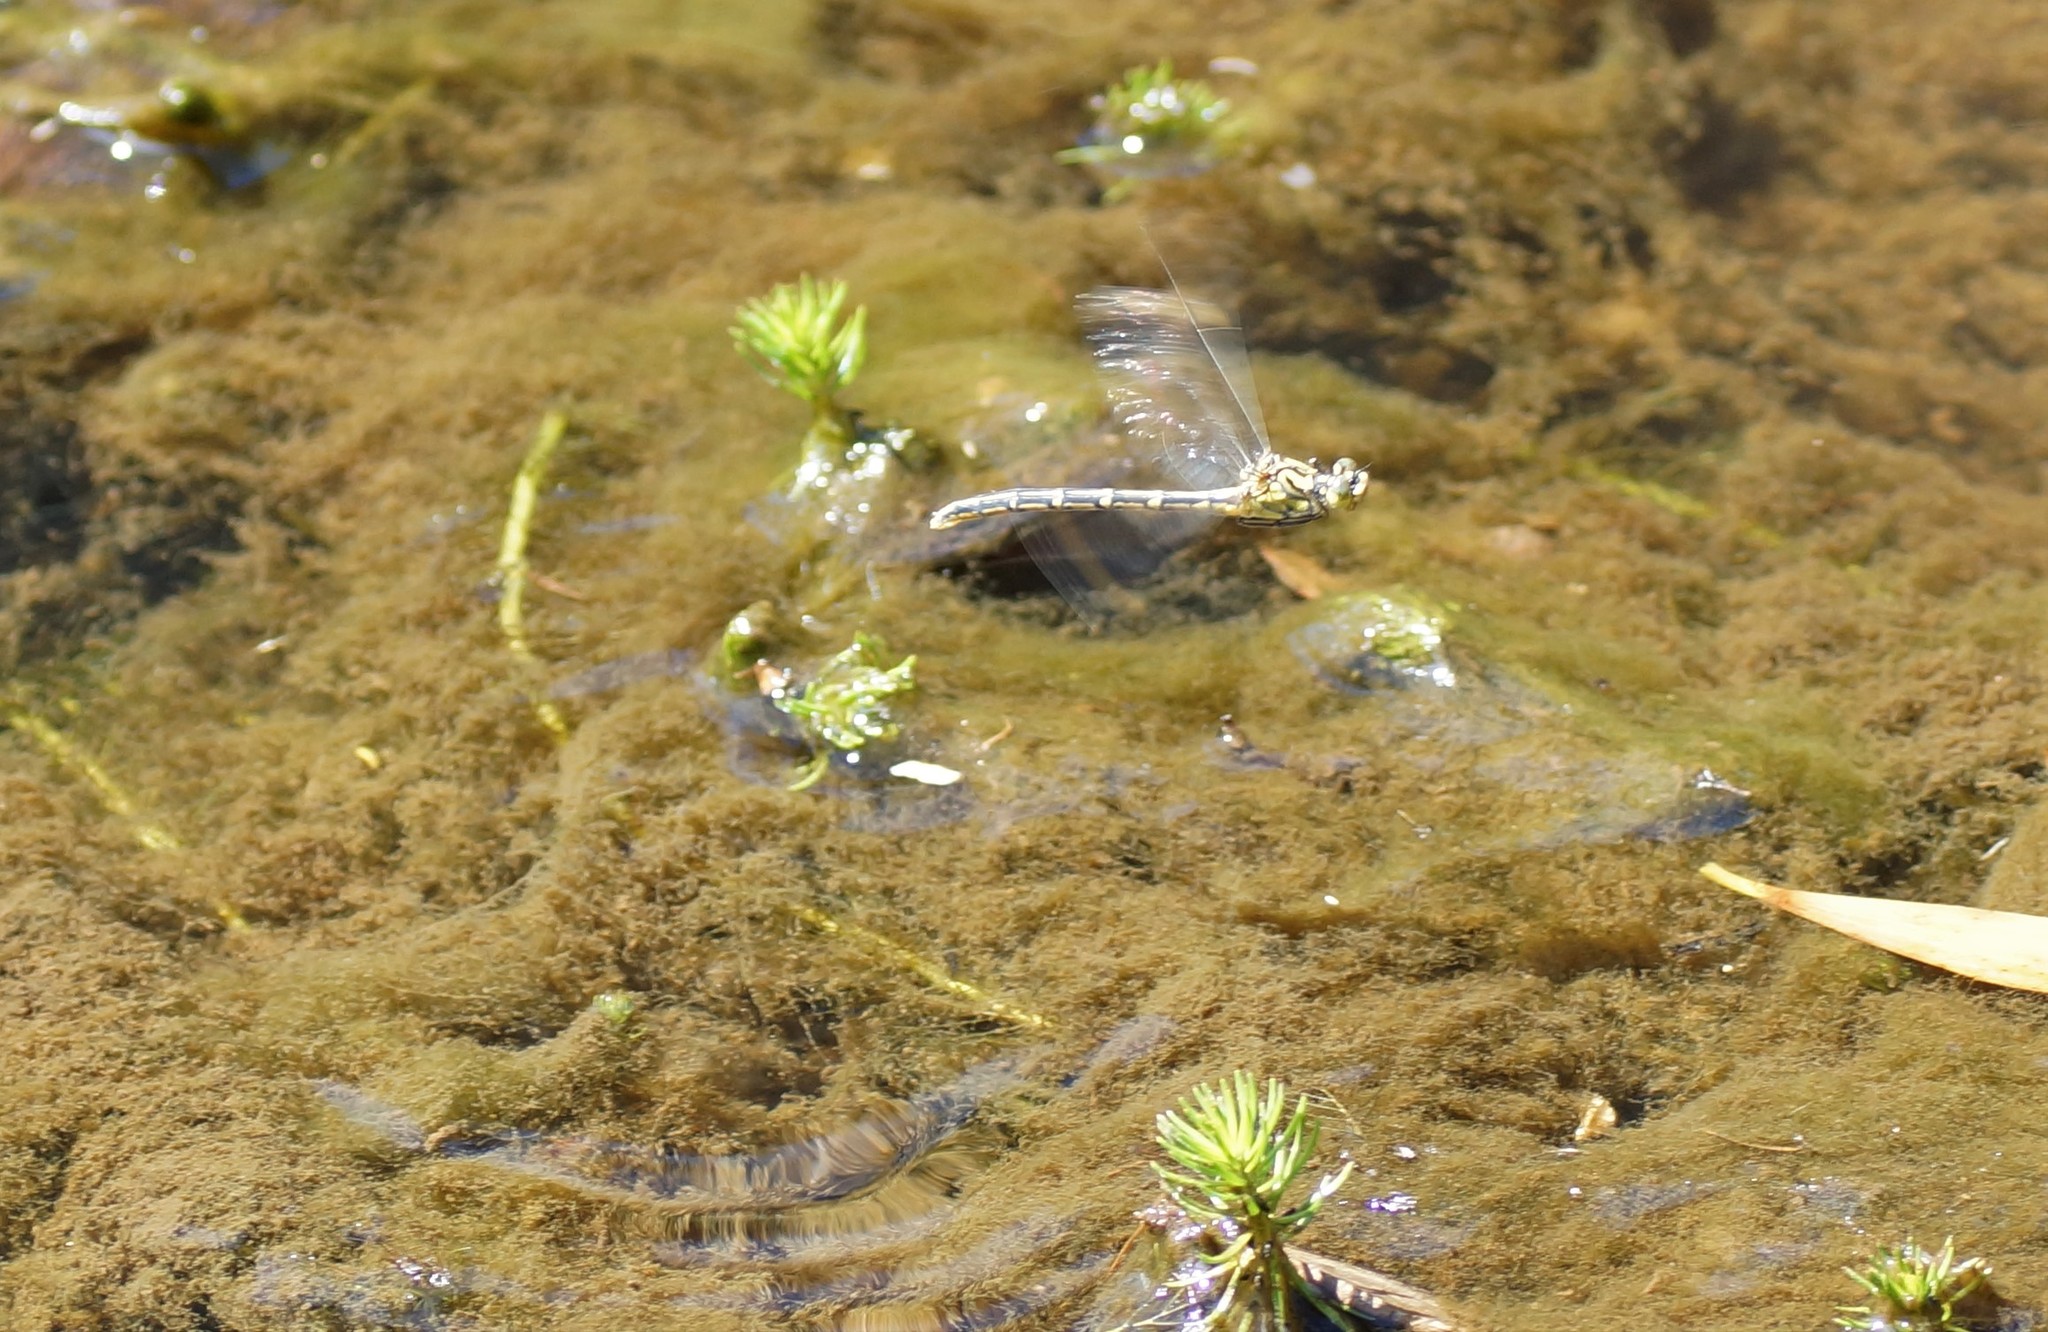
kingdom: Animalia
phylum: Arthropoda
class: Insecta
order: Odonata
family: Gomphidae
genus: Austrogomphus
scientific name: Austrogomphus guerini
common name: Yellow-striped hunter
